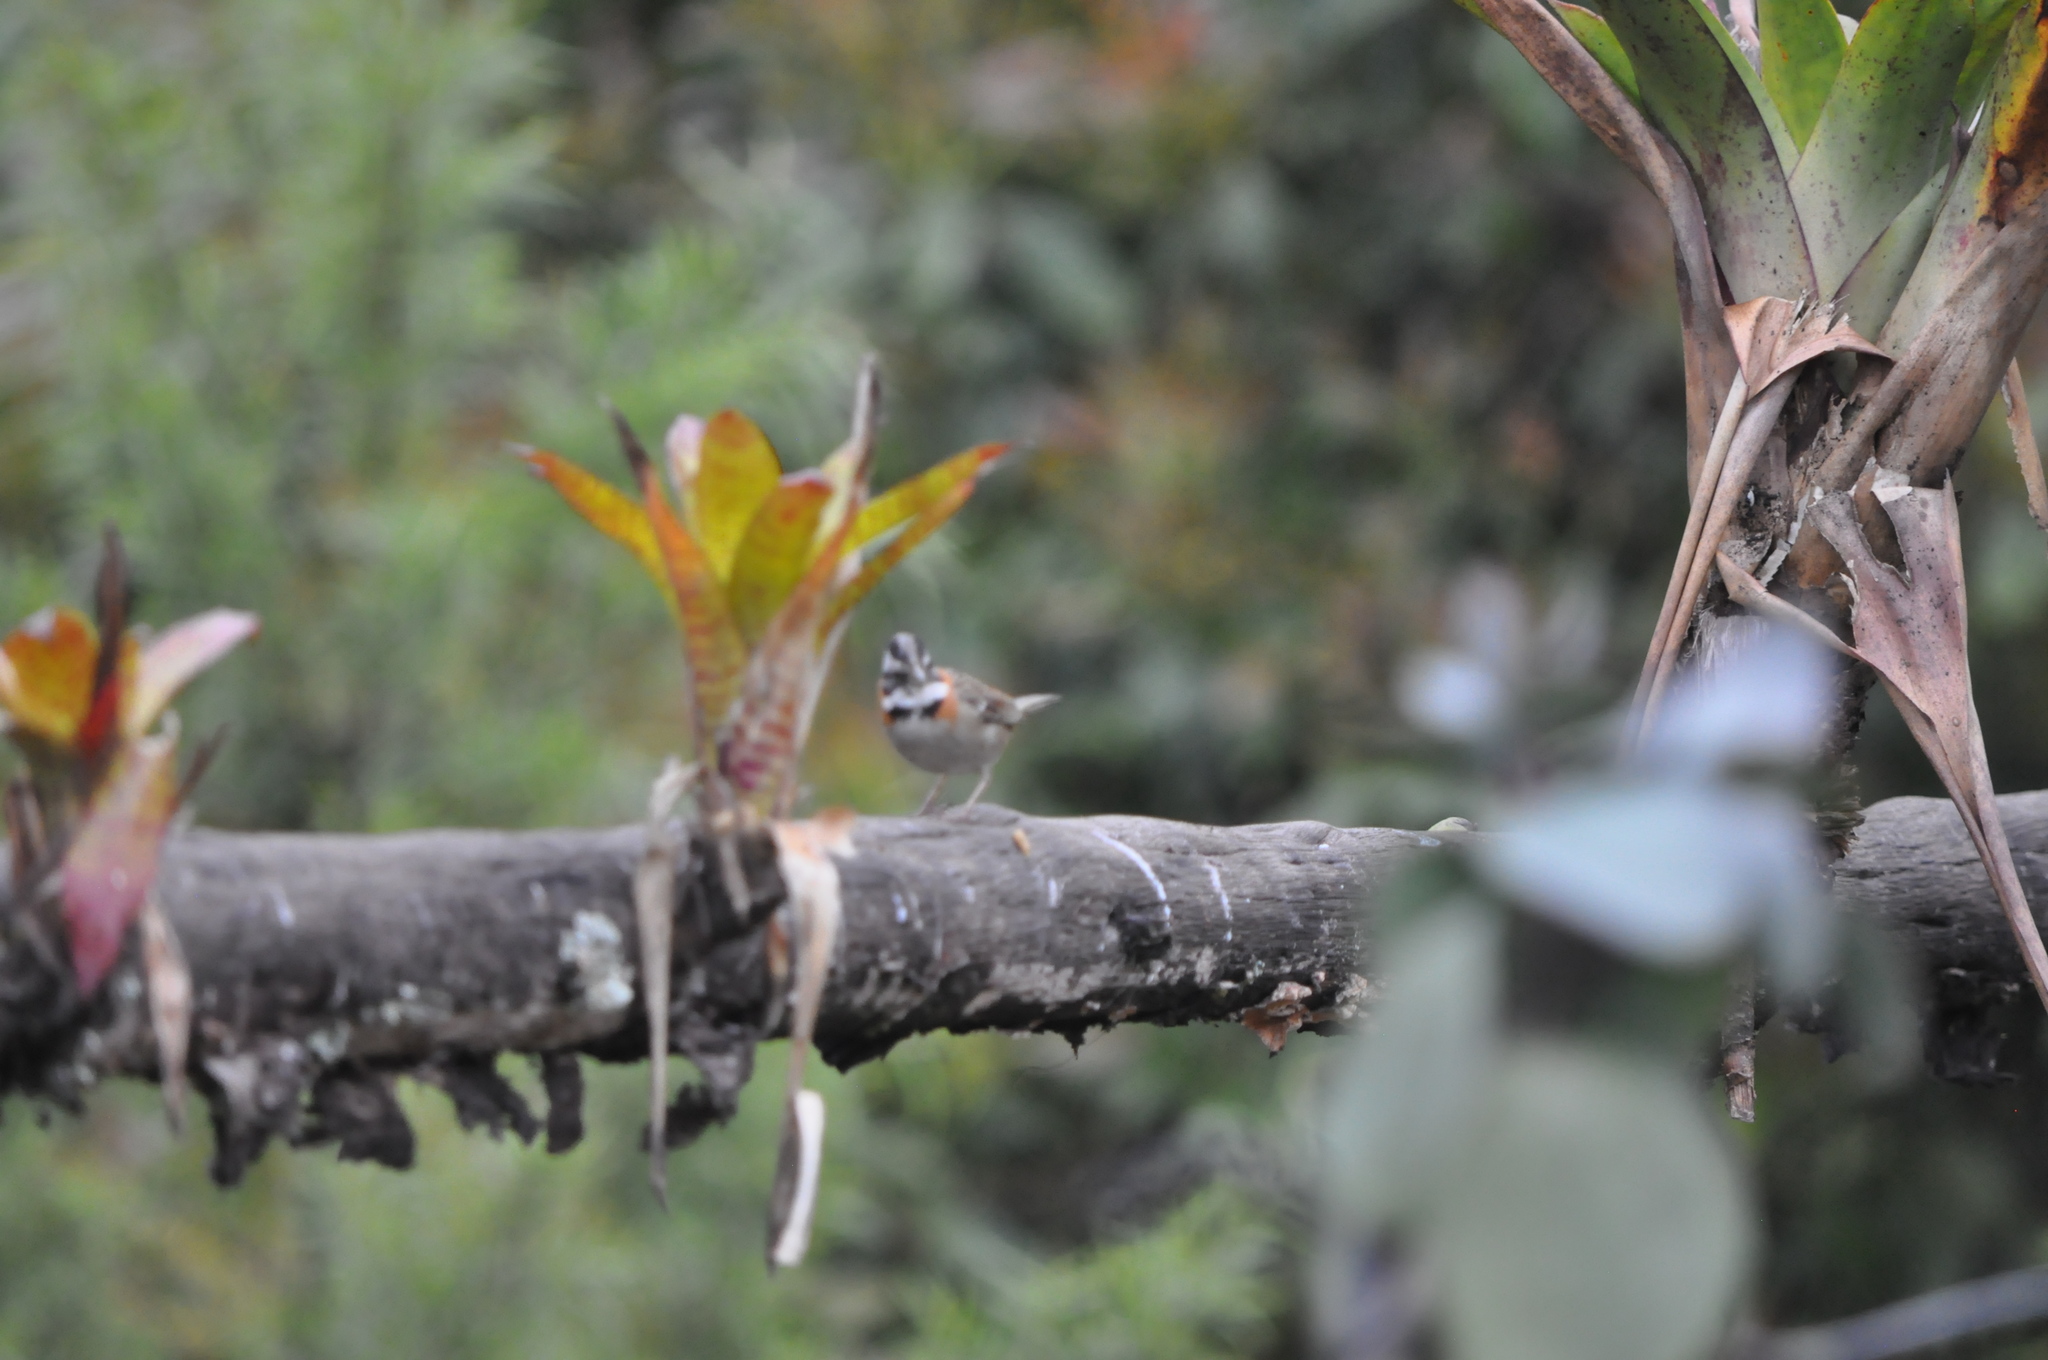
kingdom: Animalia
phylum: Chordata
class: Aves
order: Passeriformes
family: Passerellidae
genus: Zonotrichia
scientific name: Zonotrichia capensis
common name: Rufous-collared sparrow
